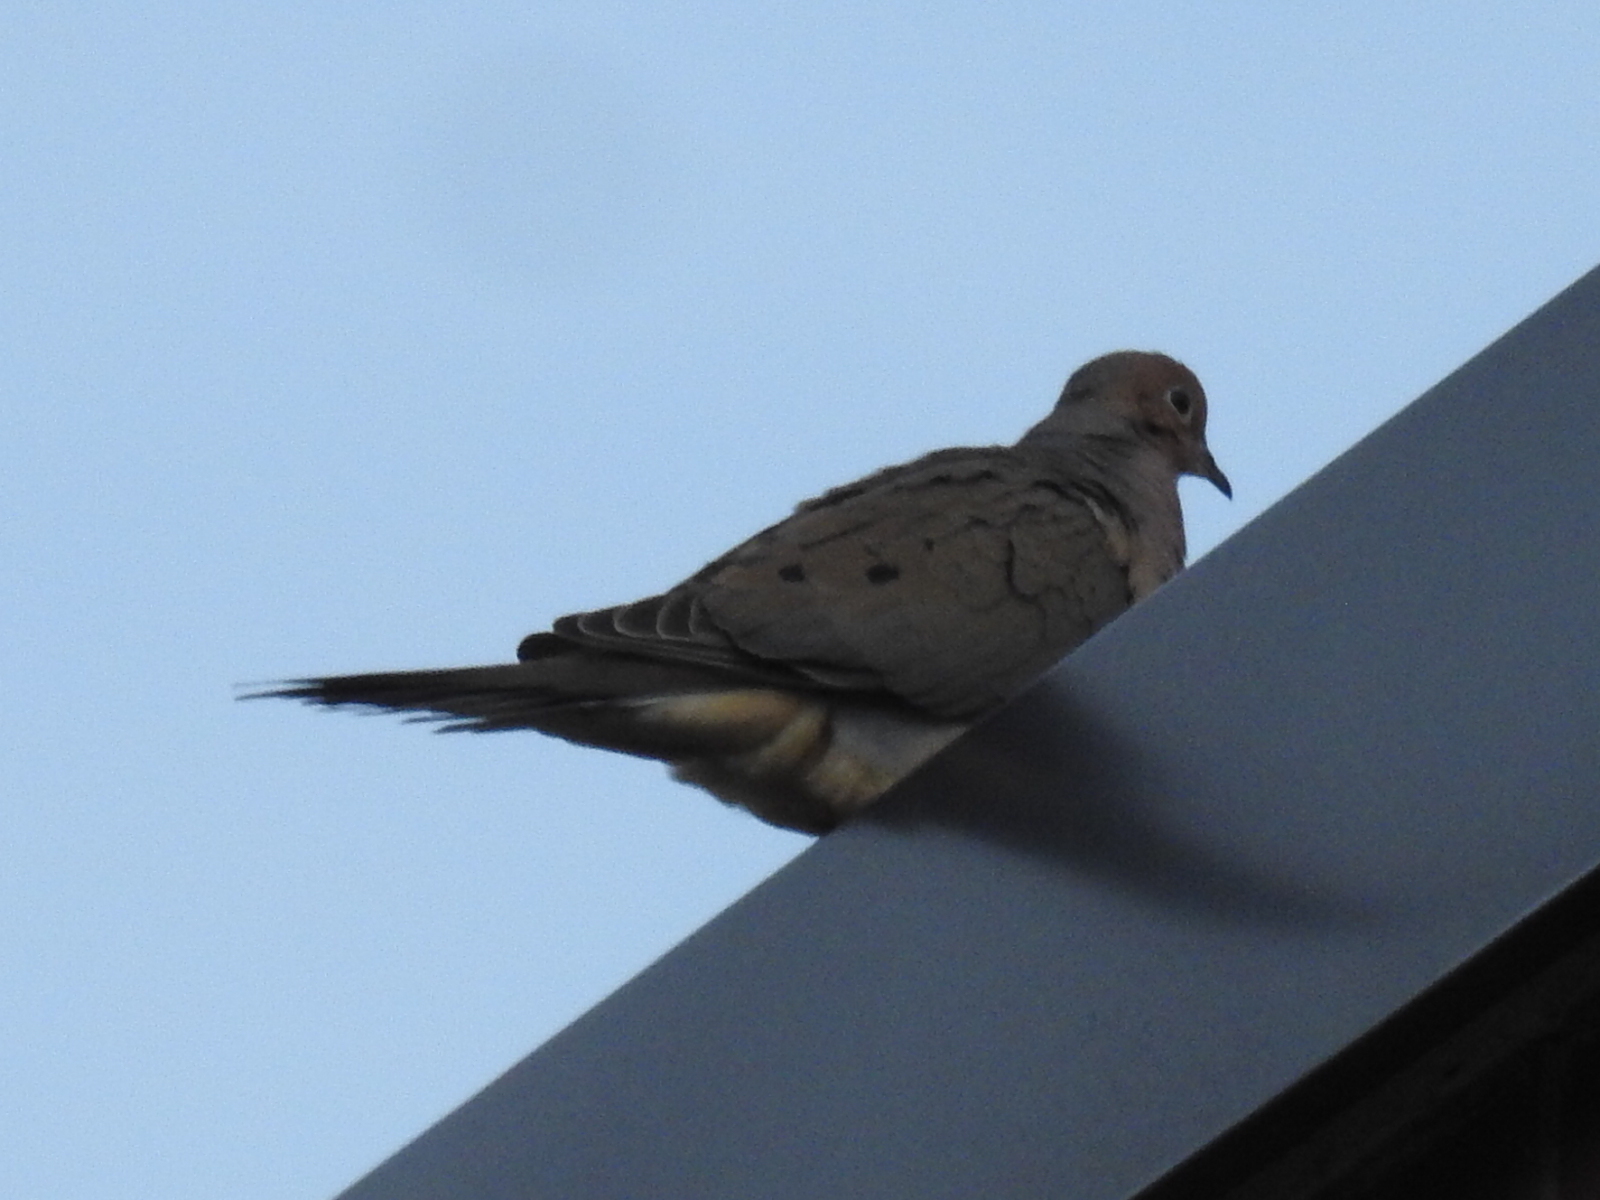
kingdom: Animalia
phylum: Chordata
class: Aves
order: Columbiformes
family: Columbidae
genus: Zenaida
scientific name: Zenaida macroura
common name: Mourning dove
